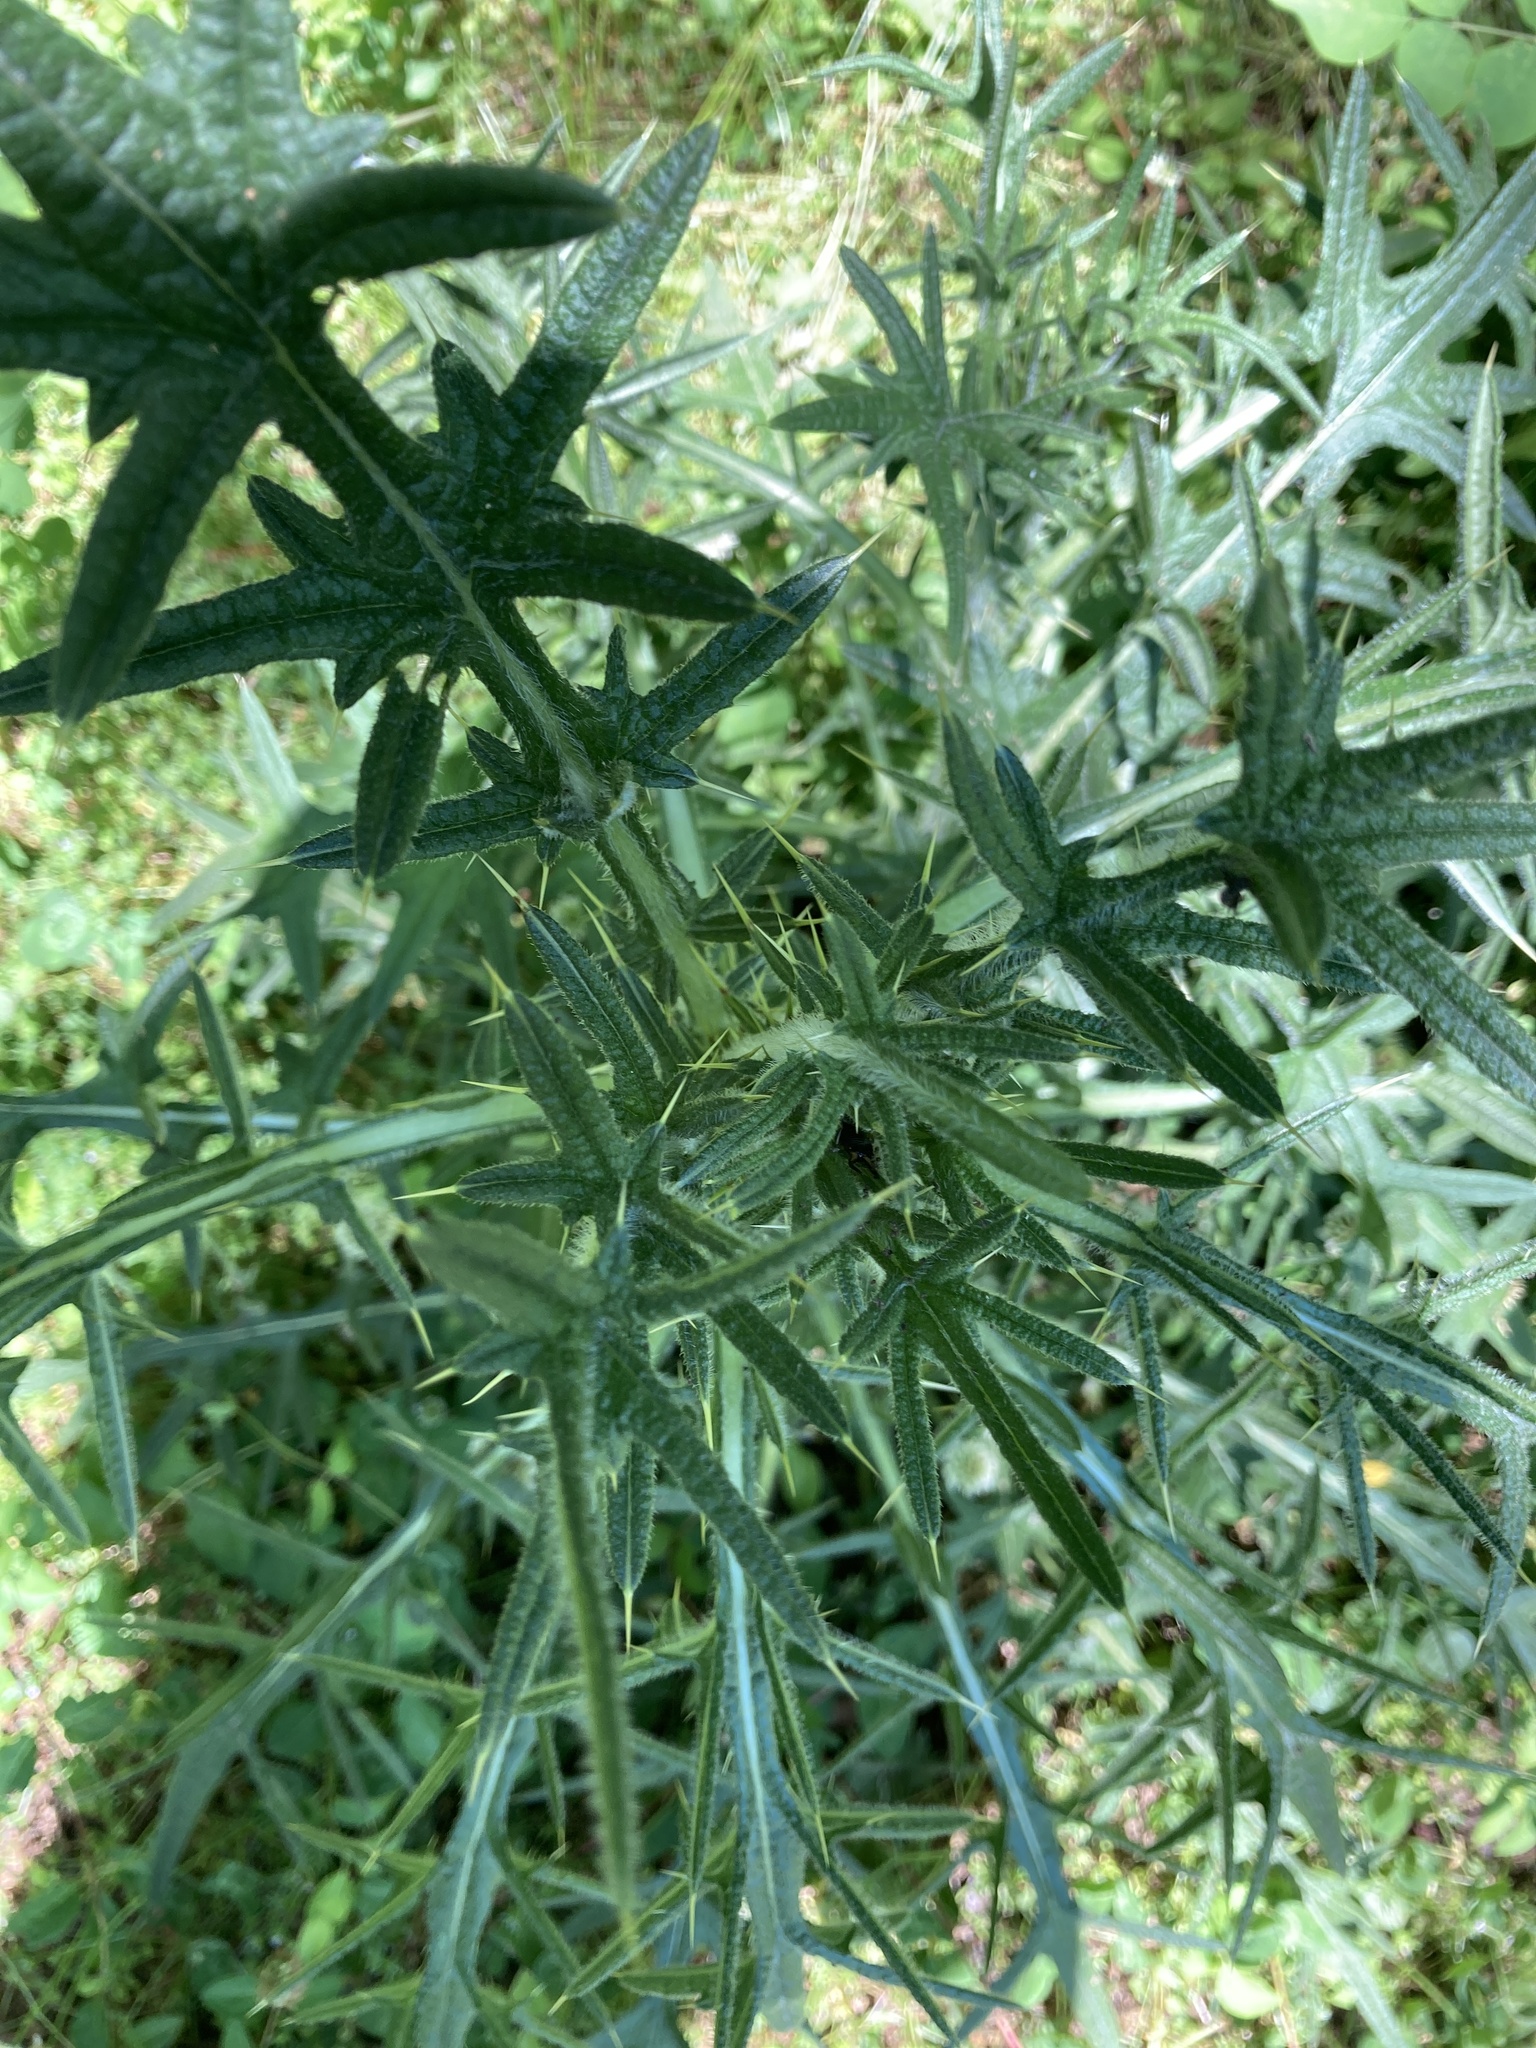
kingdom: Plantae
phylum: Tracheophyta
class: Magnoliopsida
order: Asterales
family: Asteraceae
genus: Cirsium
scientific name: Cirsium vulgare
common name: Bull thistle
